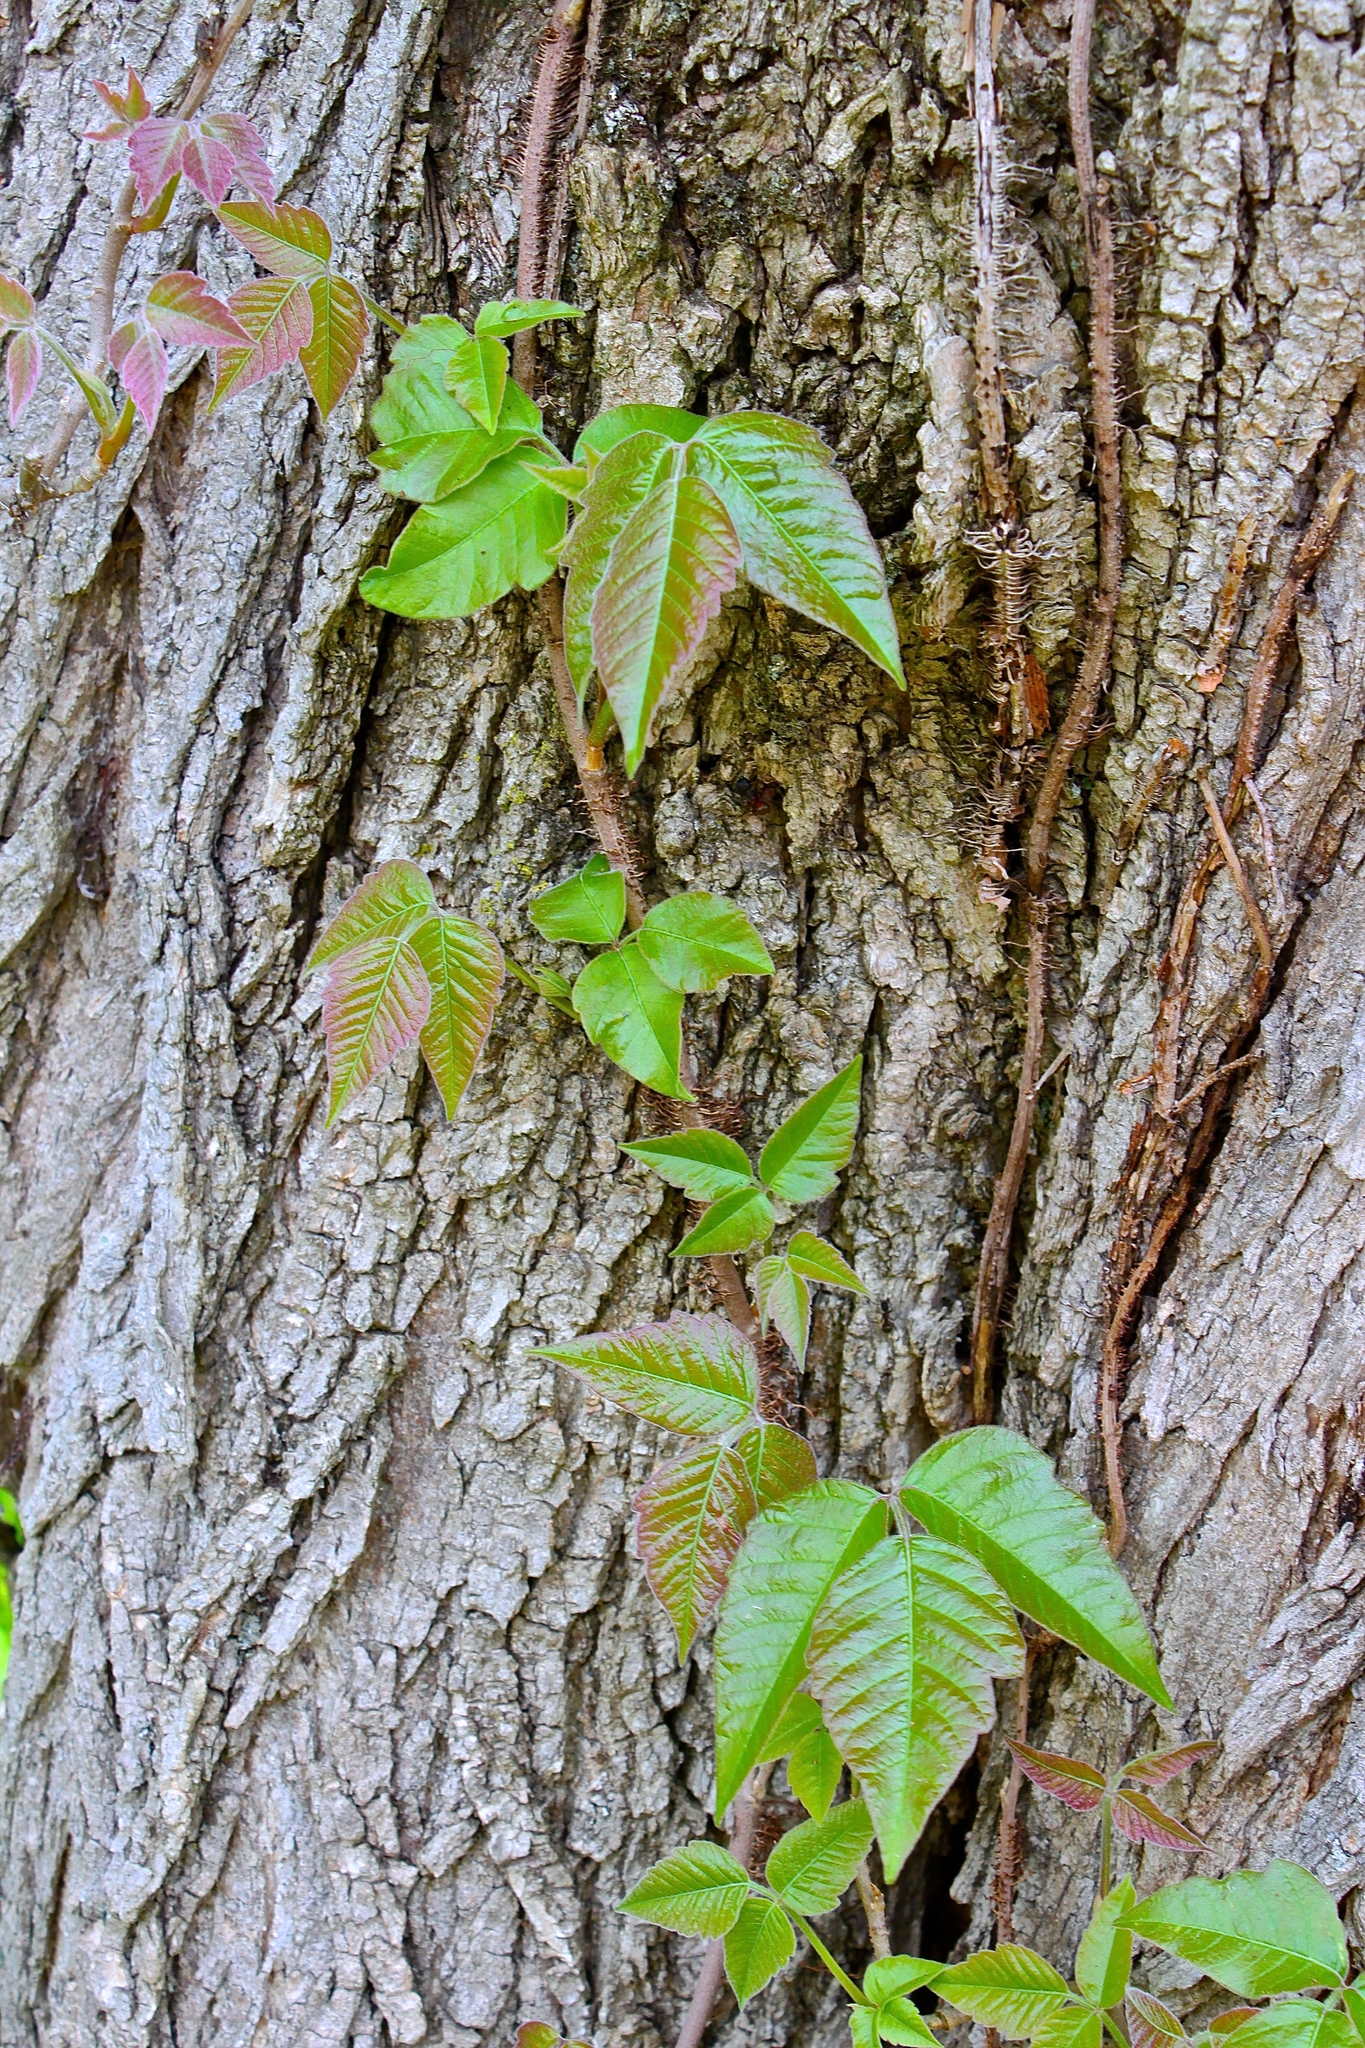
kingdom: Plantae
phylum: Tracheophyta
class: Magnoliopsida
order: Sapindales
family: Anacardiaceae
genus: Toxicodendron
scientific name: Toxicodendron radicans
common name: Poison ivy
